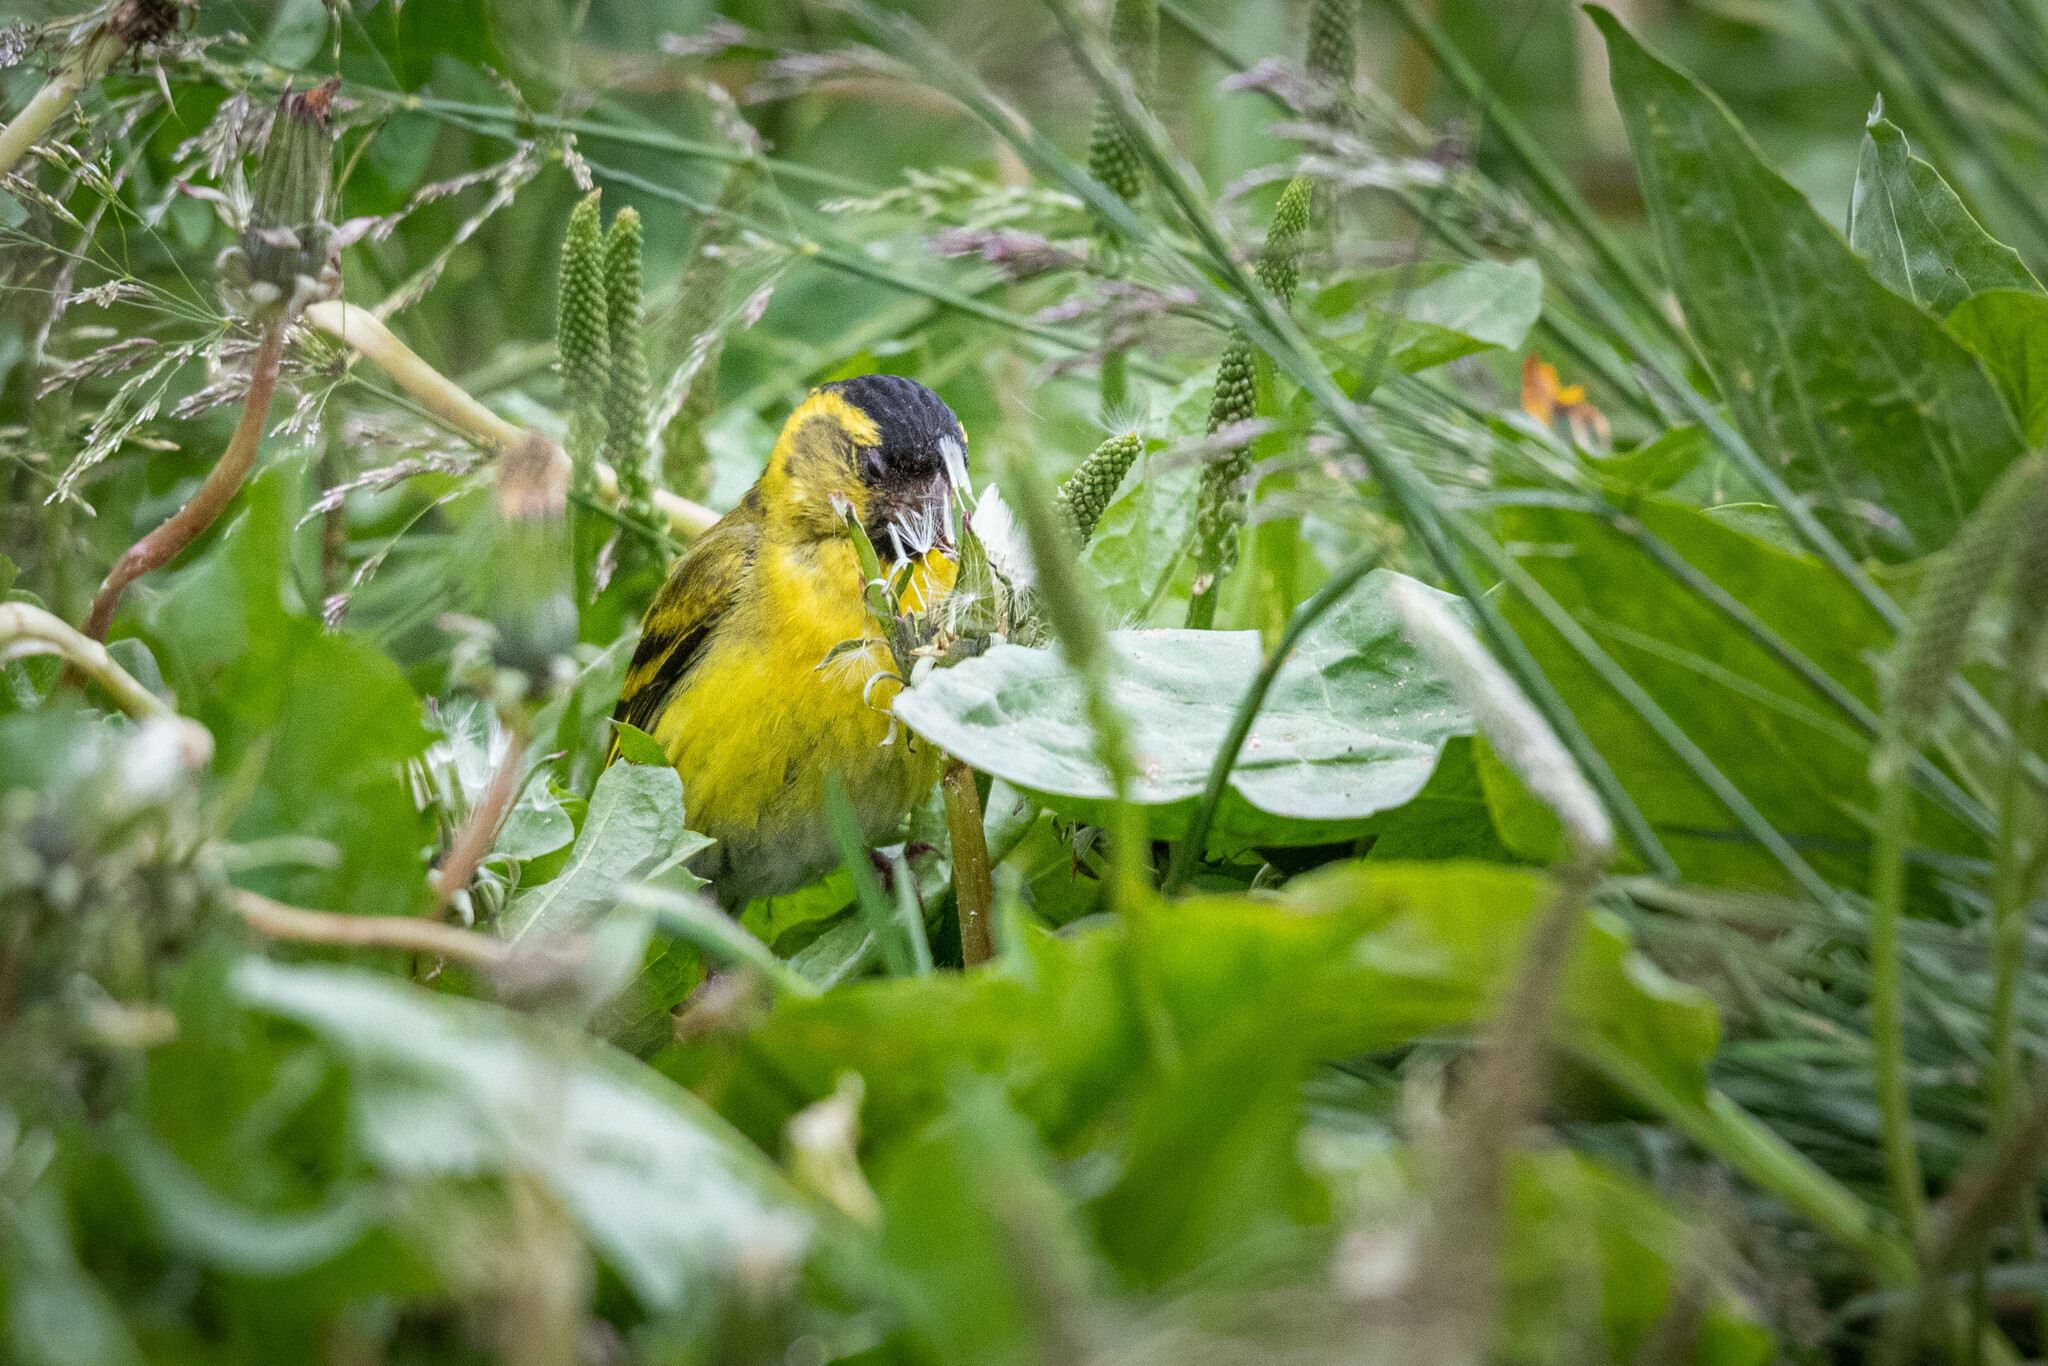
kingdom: Animalia
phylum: Chordata
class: Aves
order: Passeriformes
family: Fringillidae
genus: Spinus
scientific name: Spinus spinus
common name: Eurasian siskin
